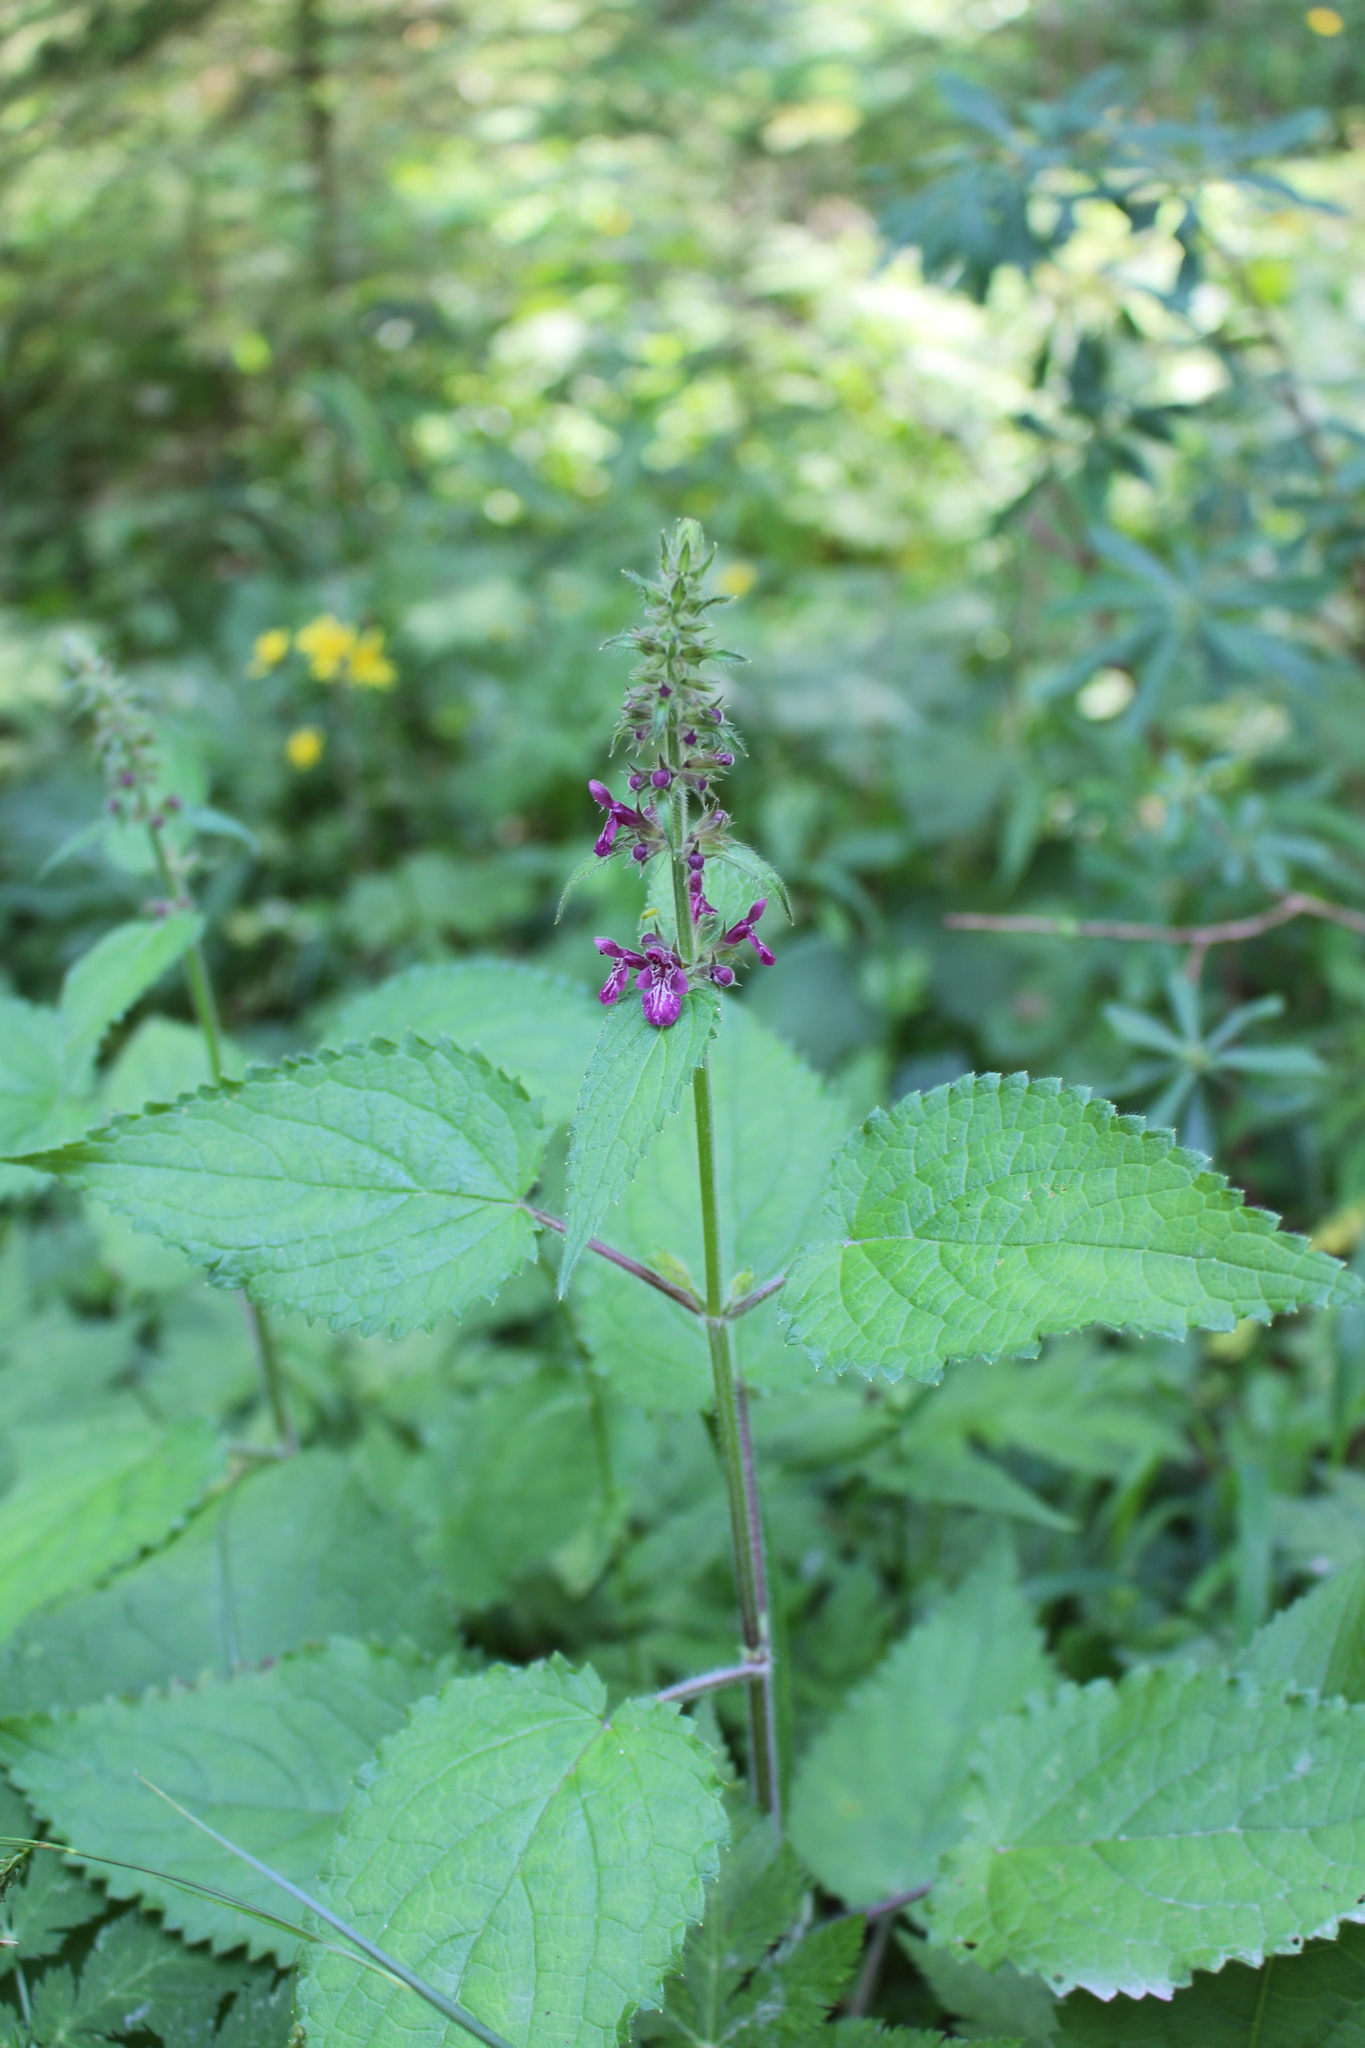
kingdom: Plantae
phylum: Tracheophyta
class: Magnoliopsida
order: Lamiales
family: Lamiaceae
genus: Stachys
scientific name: Stachys sylvatica
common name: Hedge woundwort
